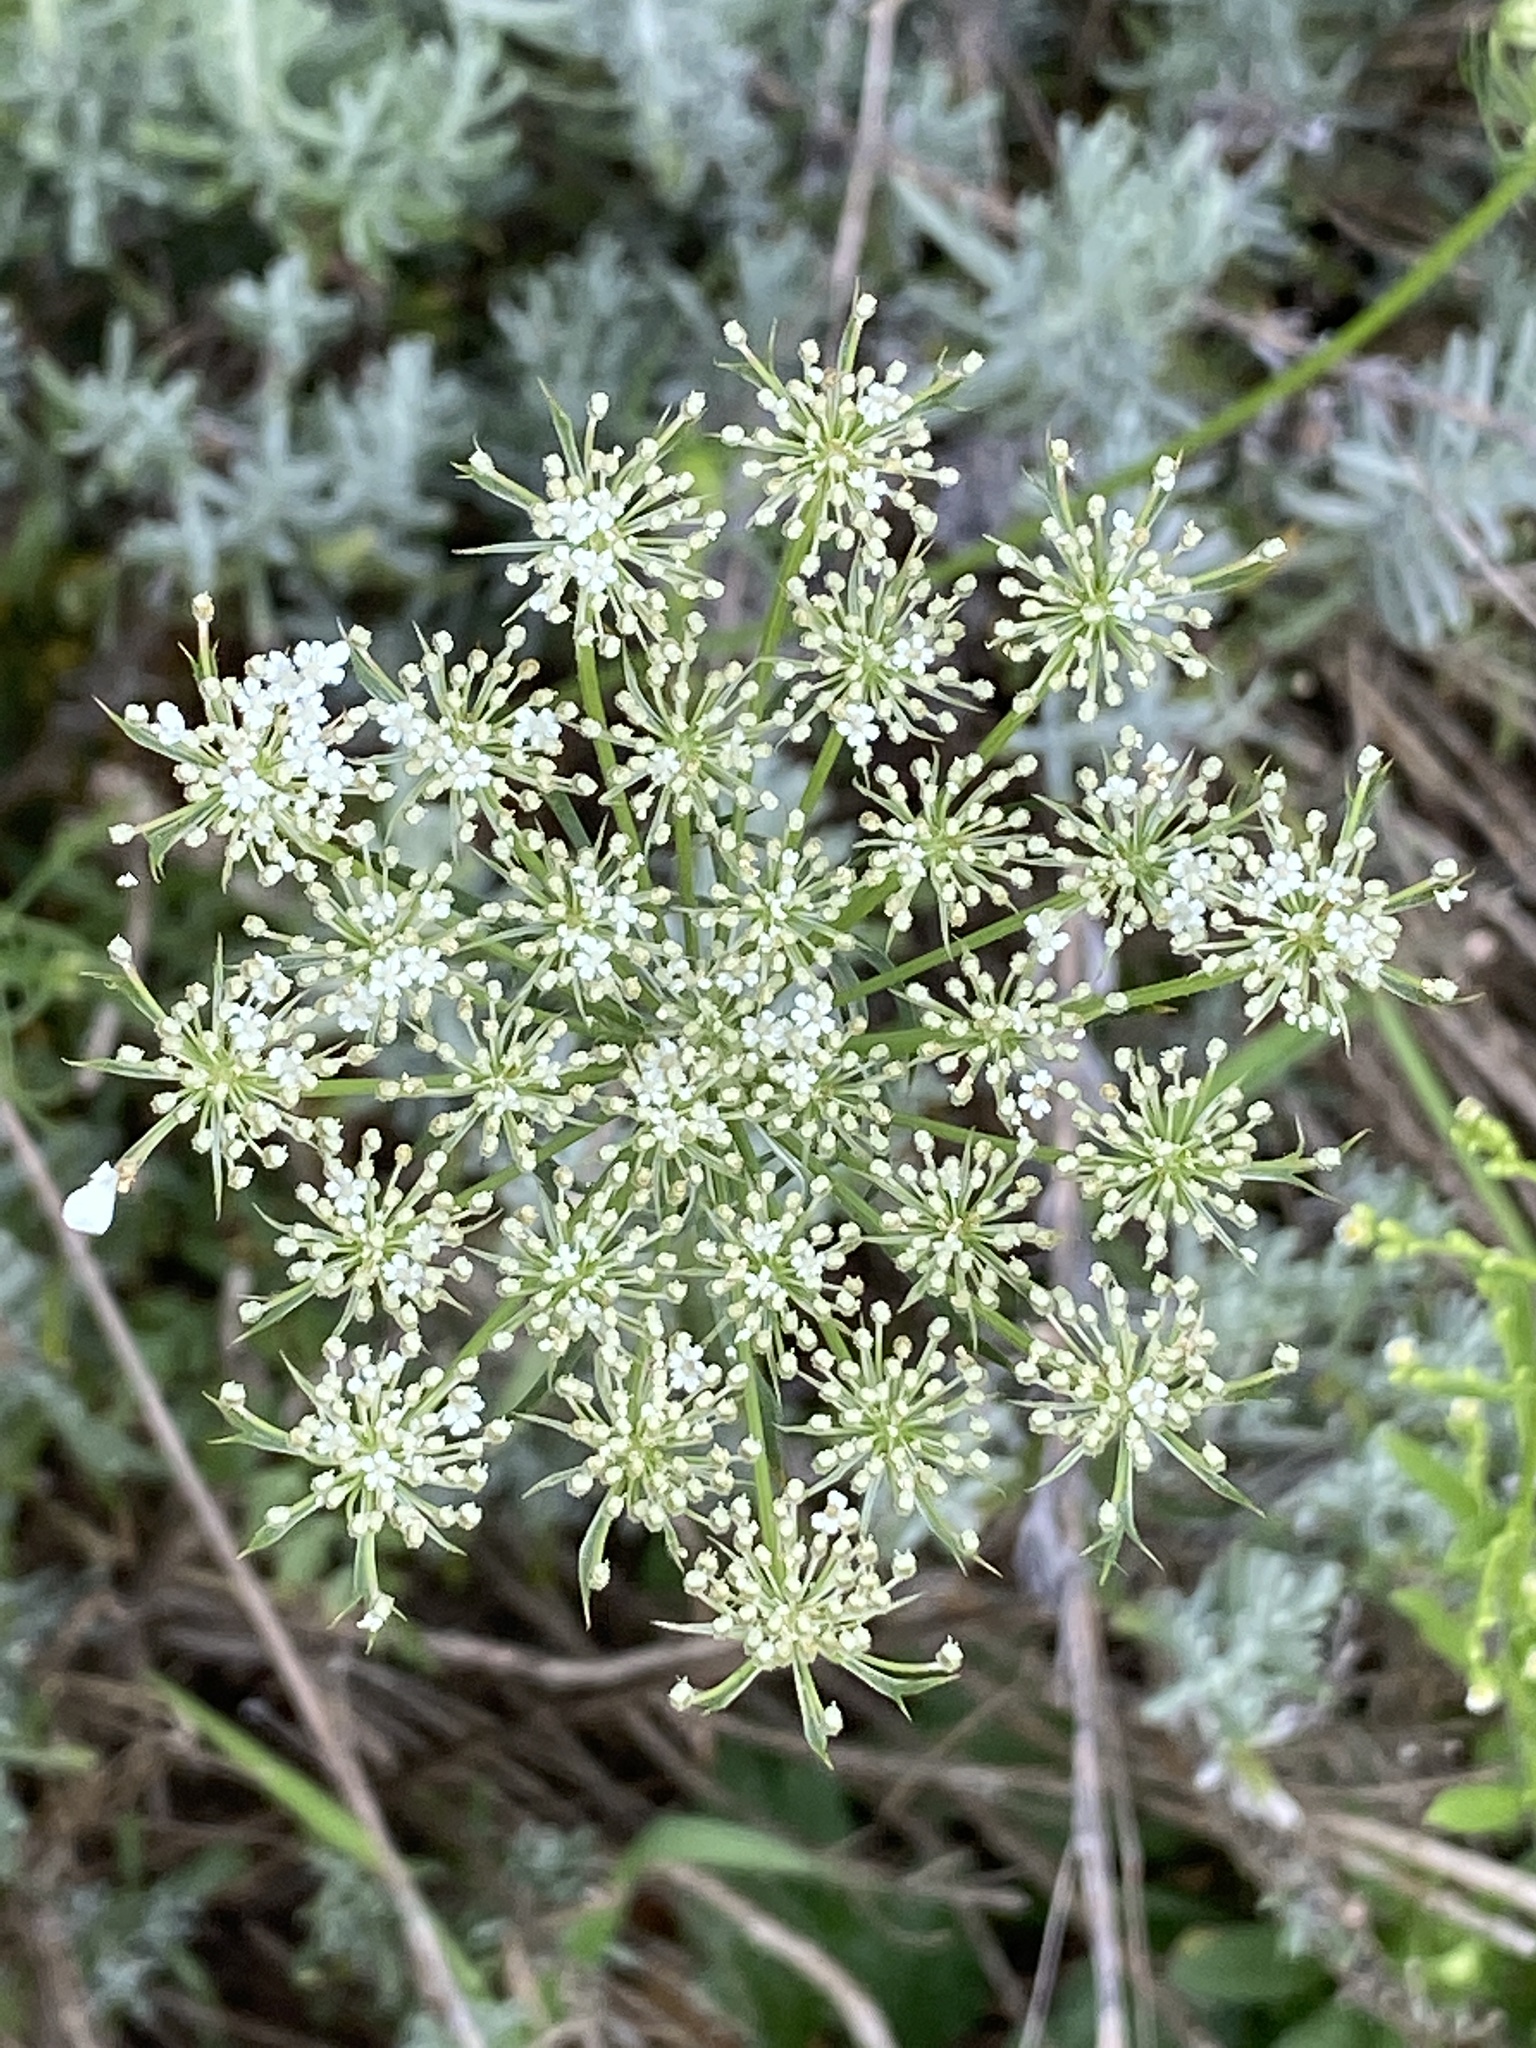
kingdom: Plantae
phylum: Tracheophyta
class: Magnoliopsida
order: Apiales
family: Apiaceae
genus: Daucus
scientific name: Daucus carota
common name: Wild carrot
